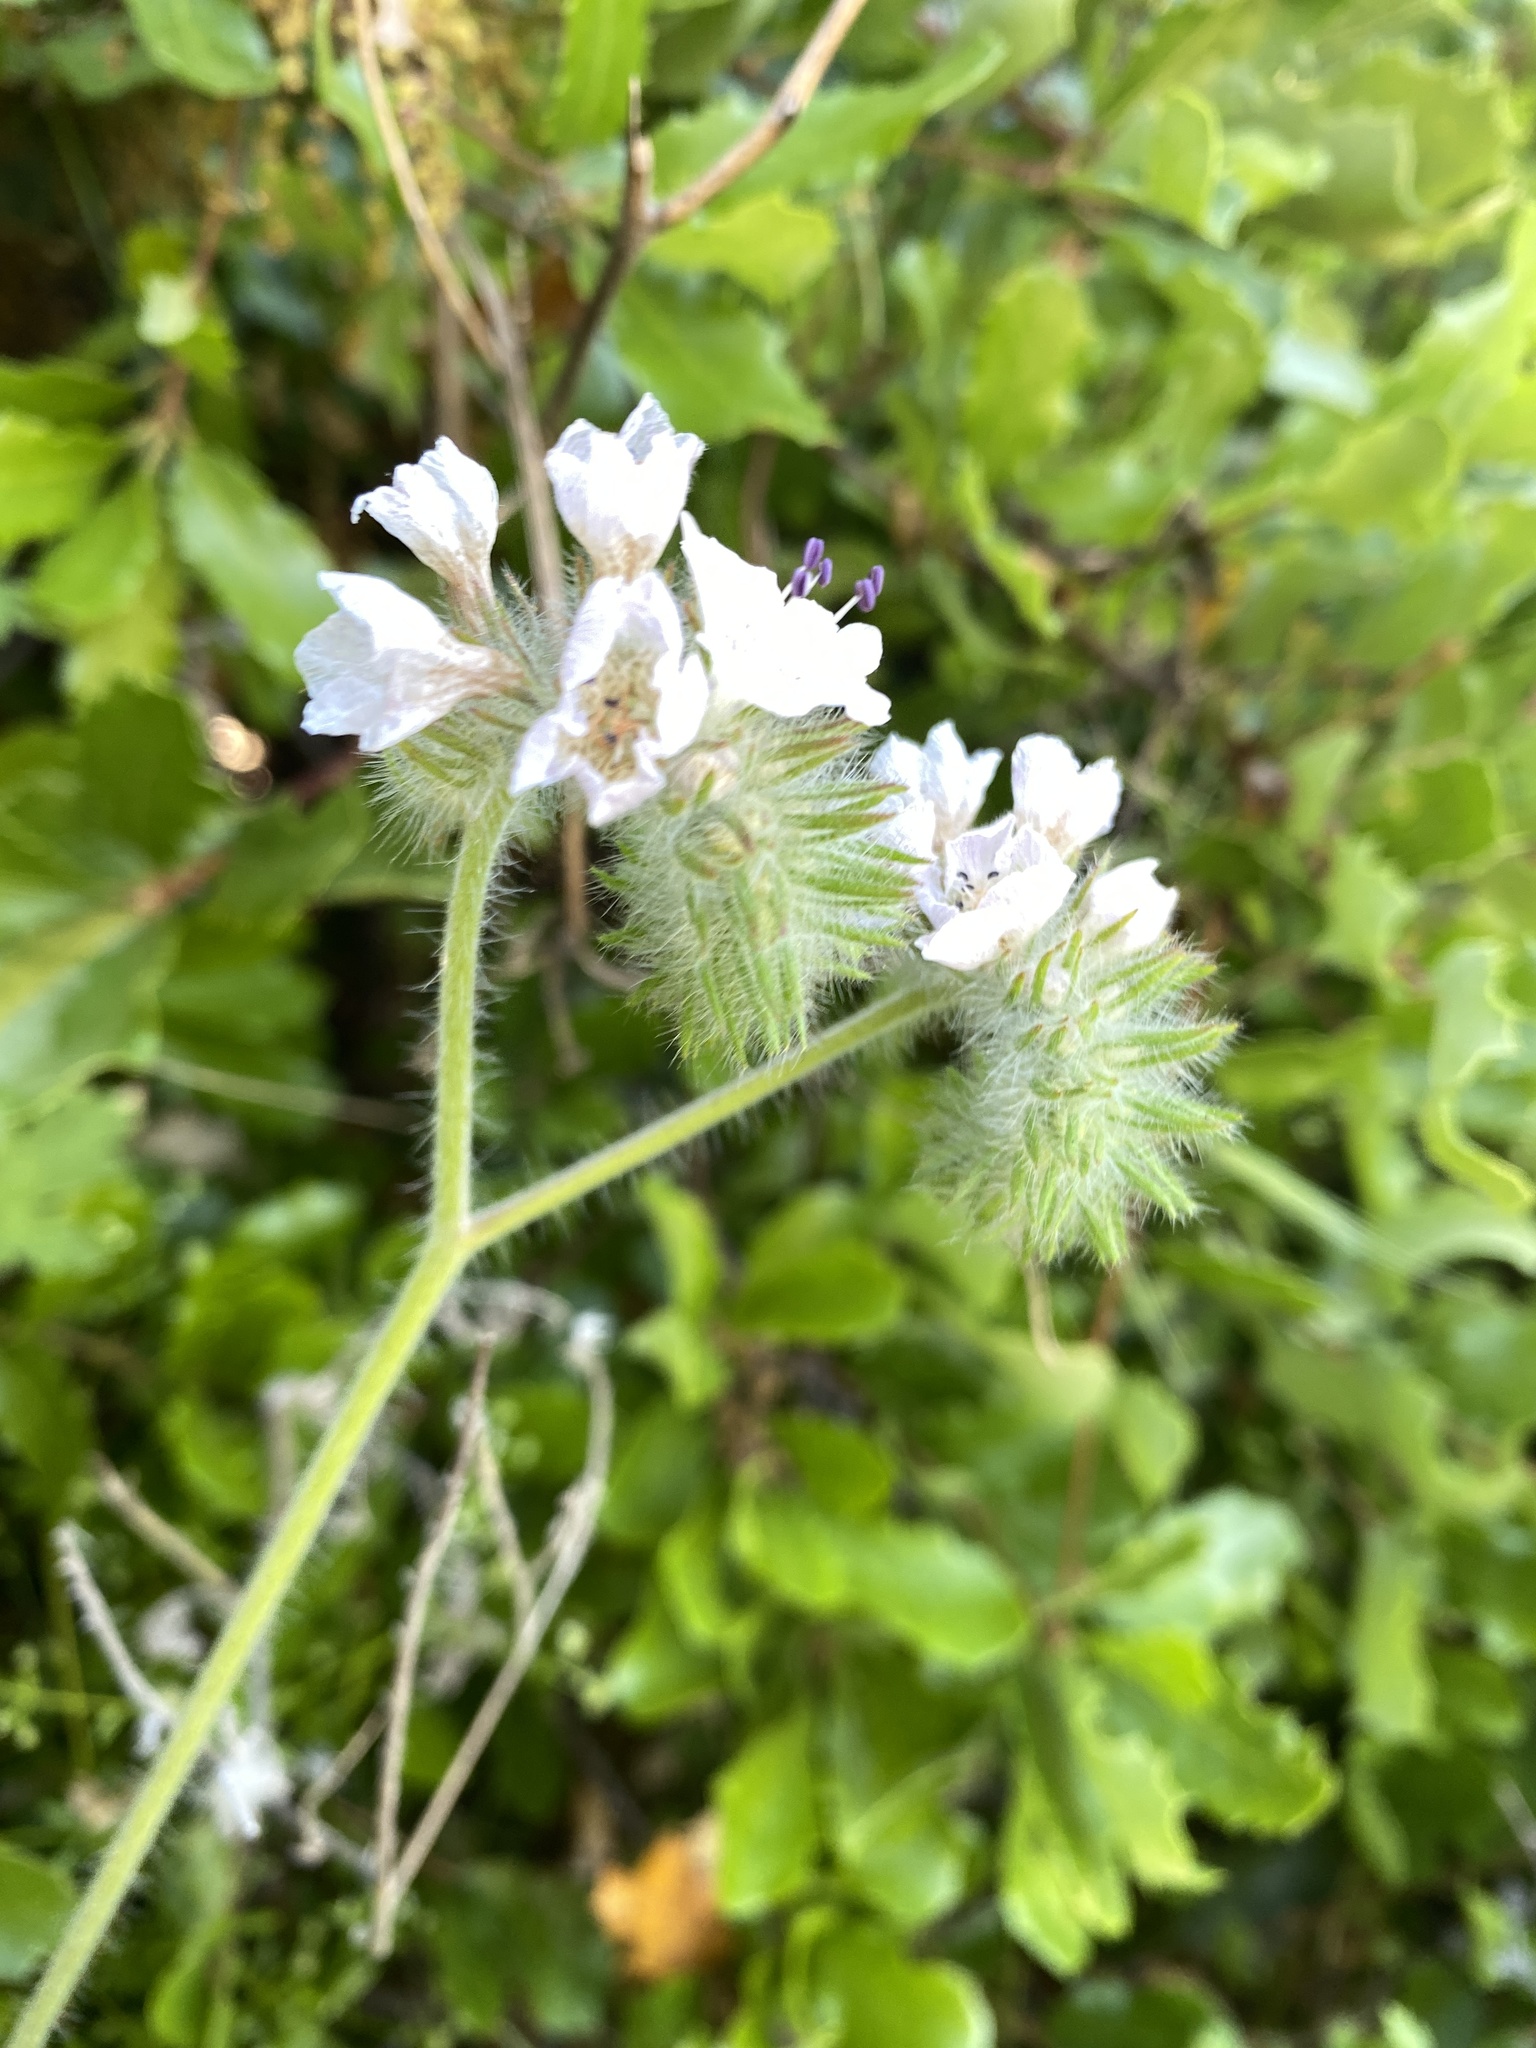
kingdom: Plantae
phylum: Tracheophyta
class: Magnoliopsida
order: Boraginales
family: Hydrophyllaceae
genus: Phacelia
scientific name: Phacelia cicutaria
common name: Caterpillar phacelia
